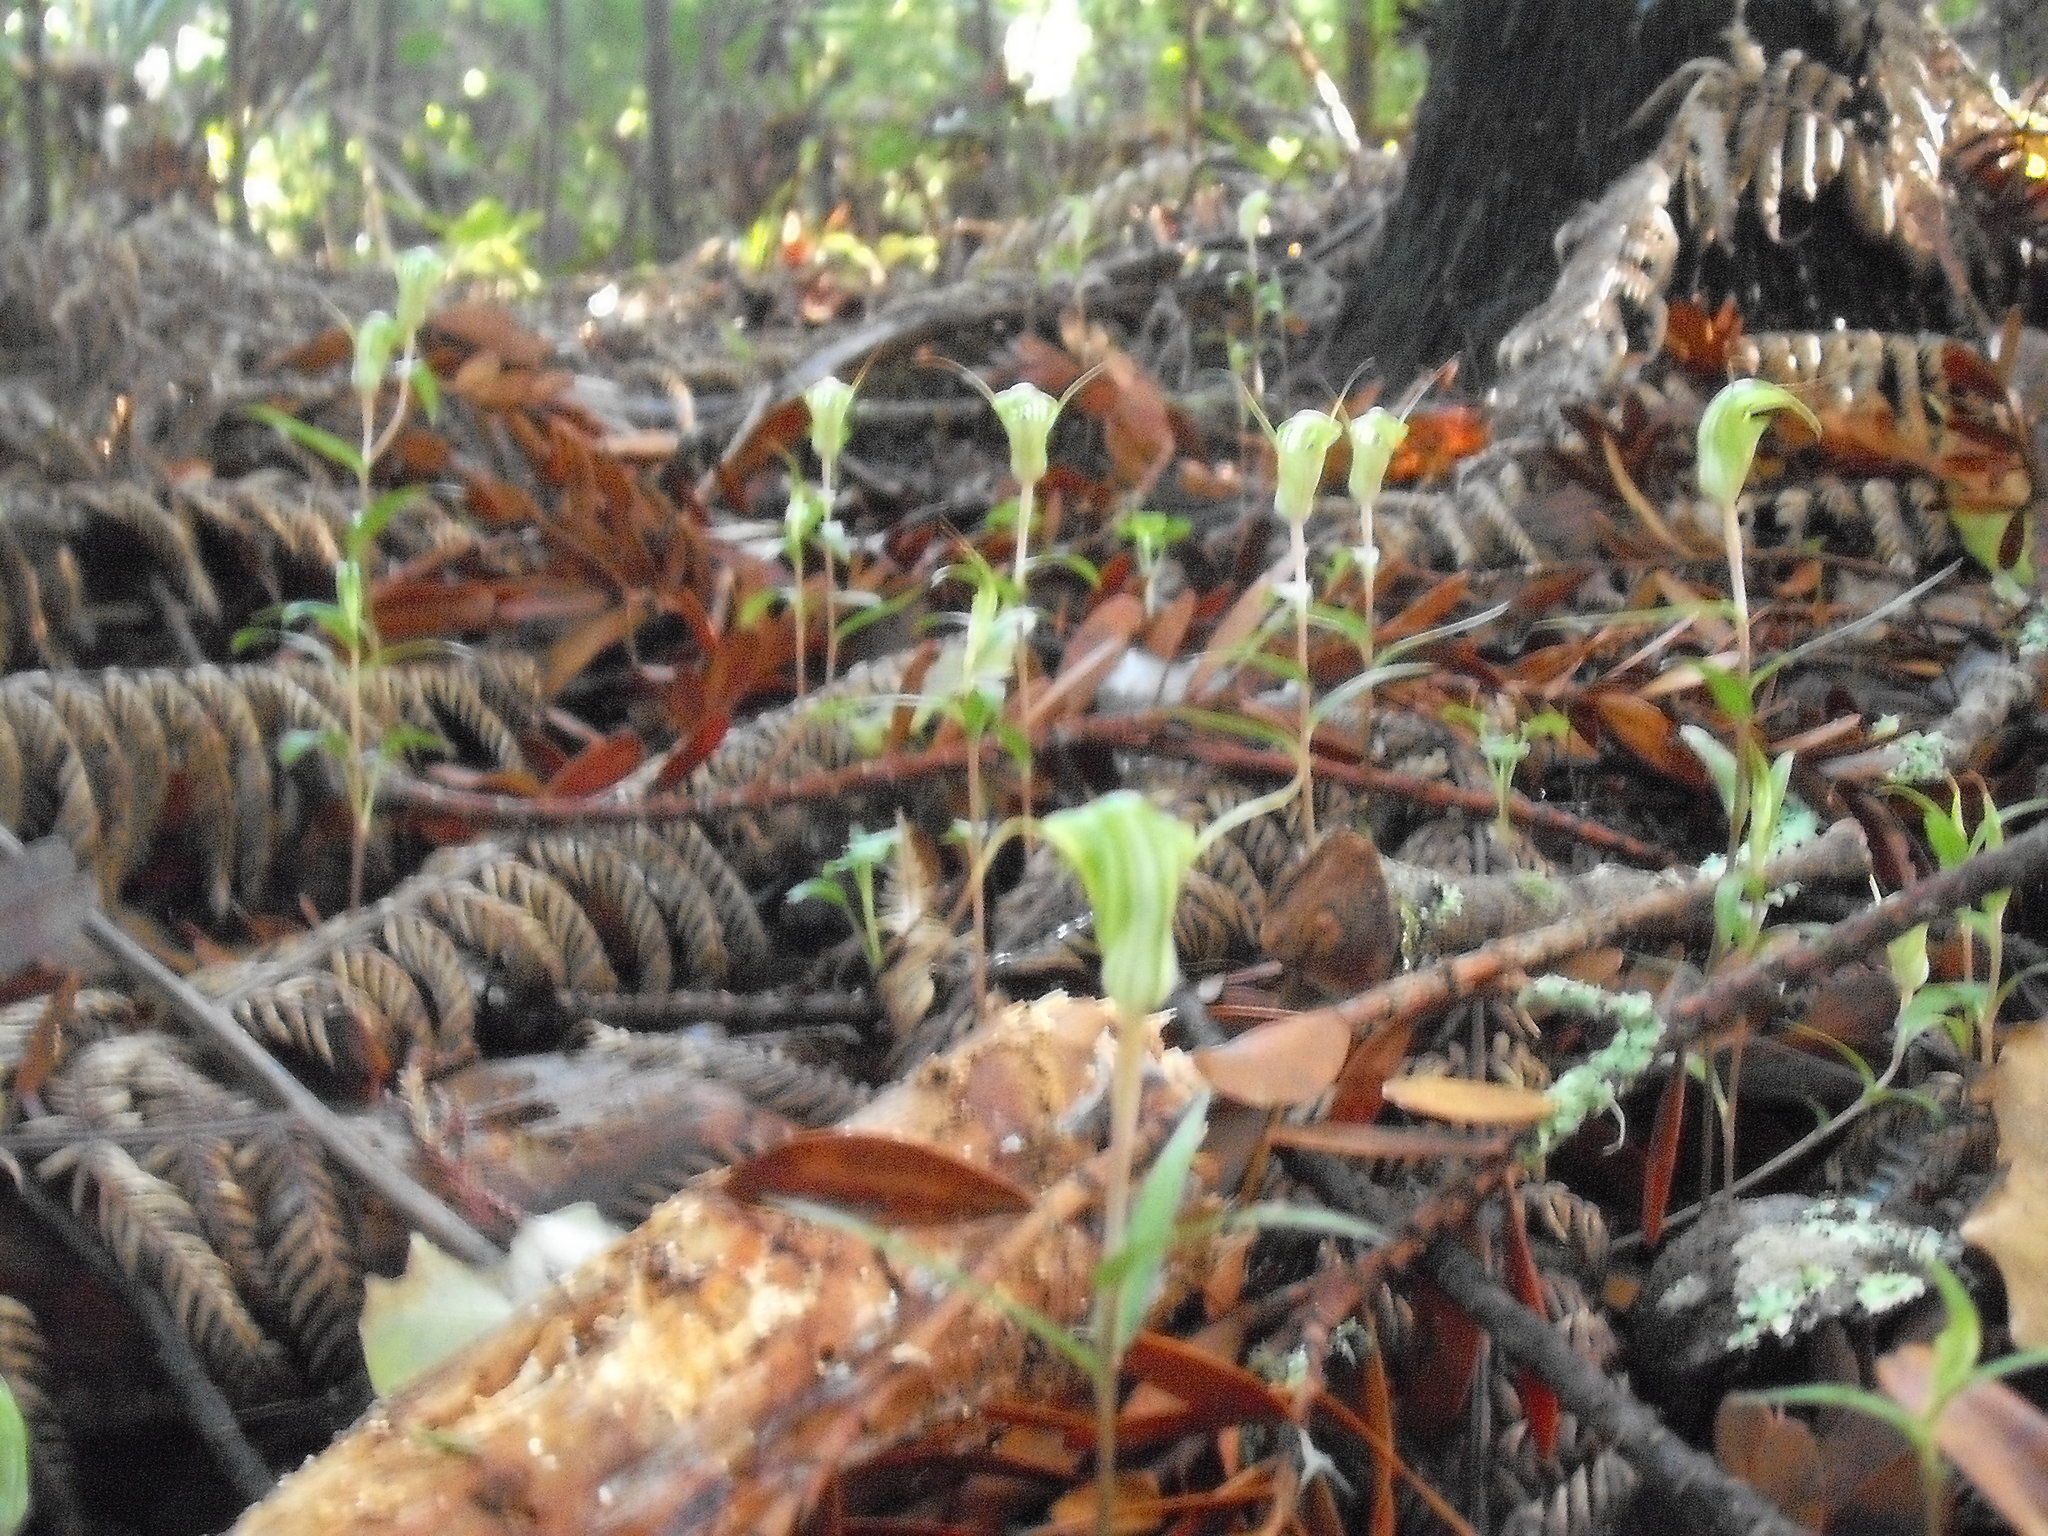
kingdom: Plantae
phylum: Tracheophyta
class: Liliopsida
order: Asparagales
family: Orchidaceae
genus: Pterostylis
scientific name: Pterostylis brumalis
